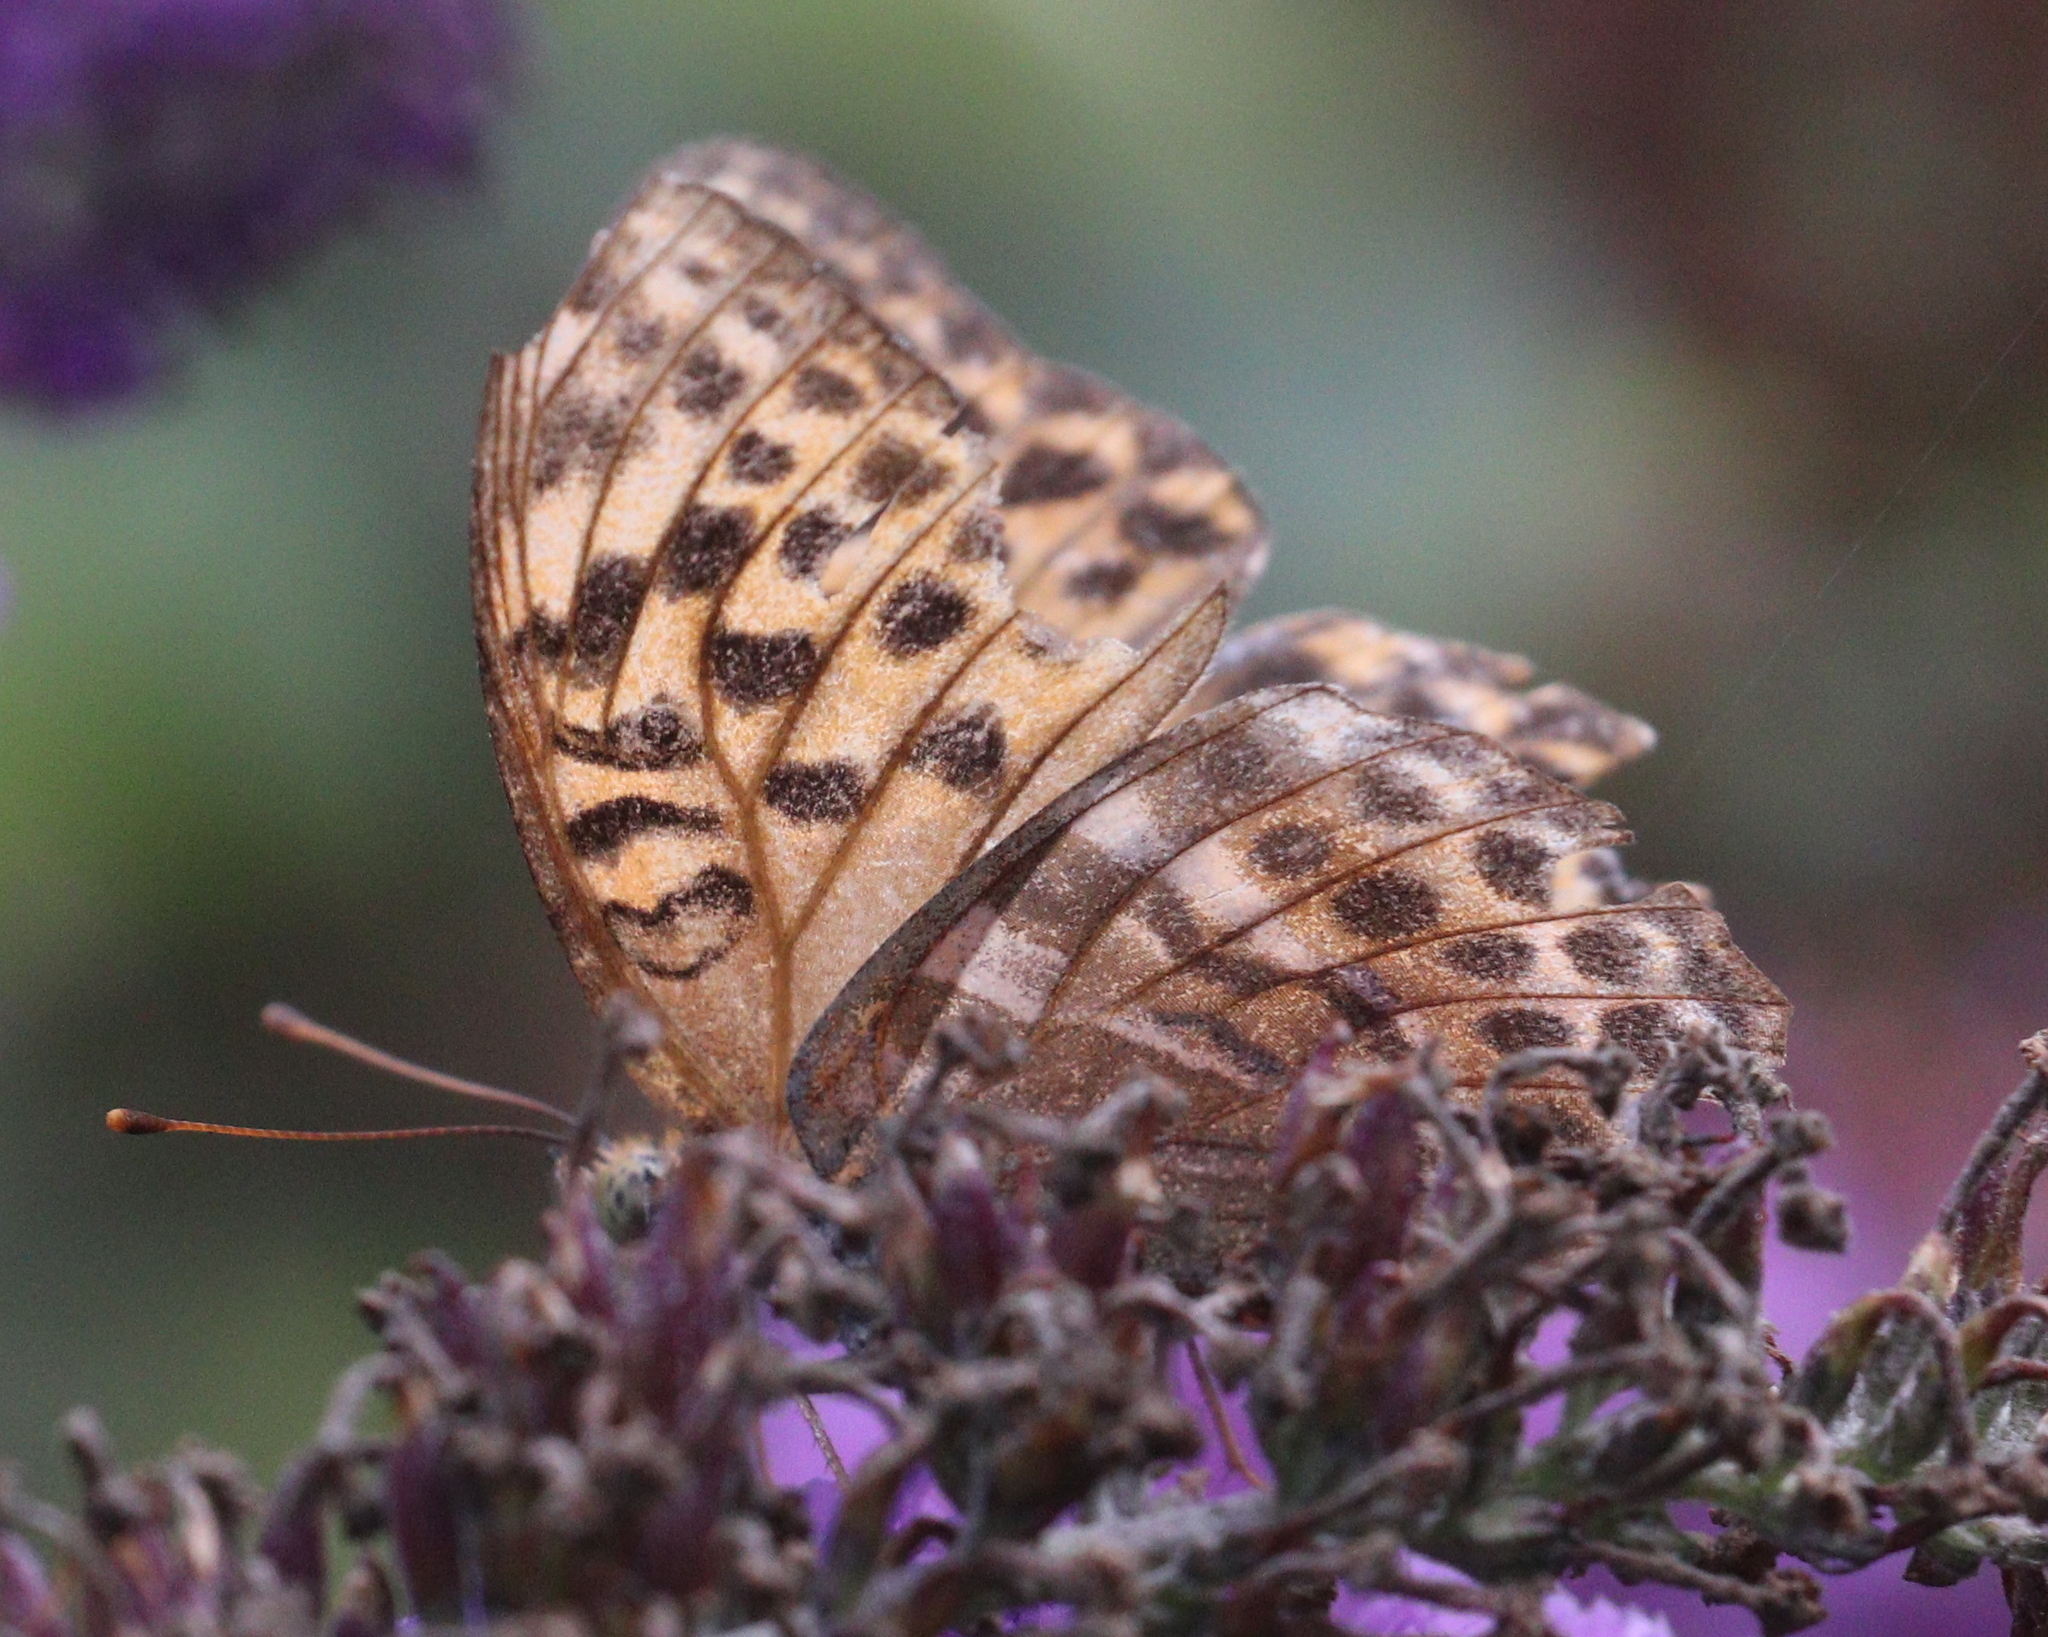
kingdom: Animalia
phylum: Arthropoda
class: Insecta
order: Lepidoptera
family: Nymphalidae
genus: Argynnis
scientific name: Argynnis paphia
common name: Silver-washed fritillary
